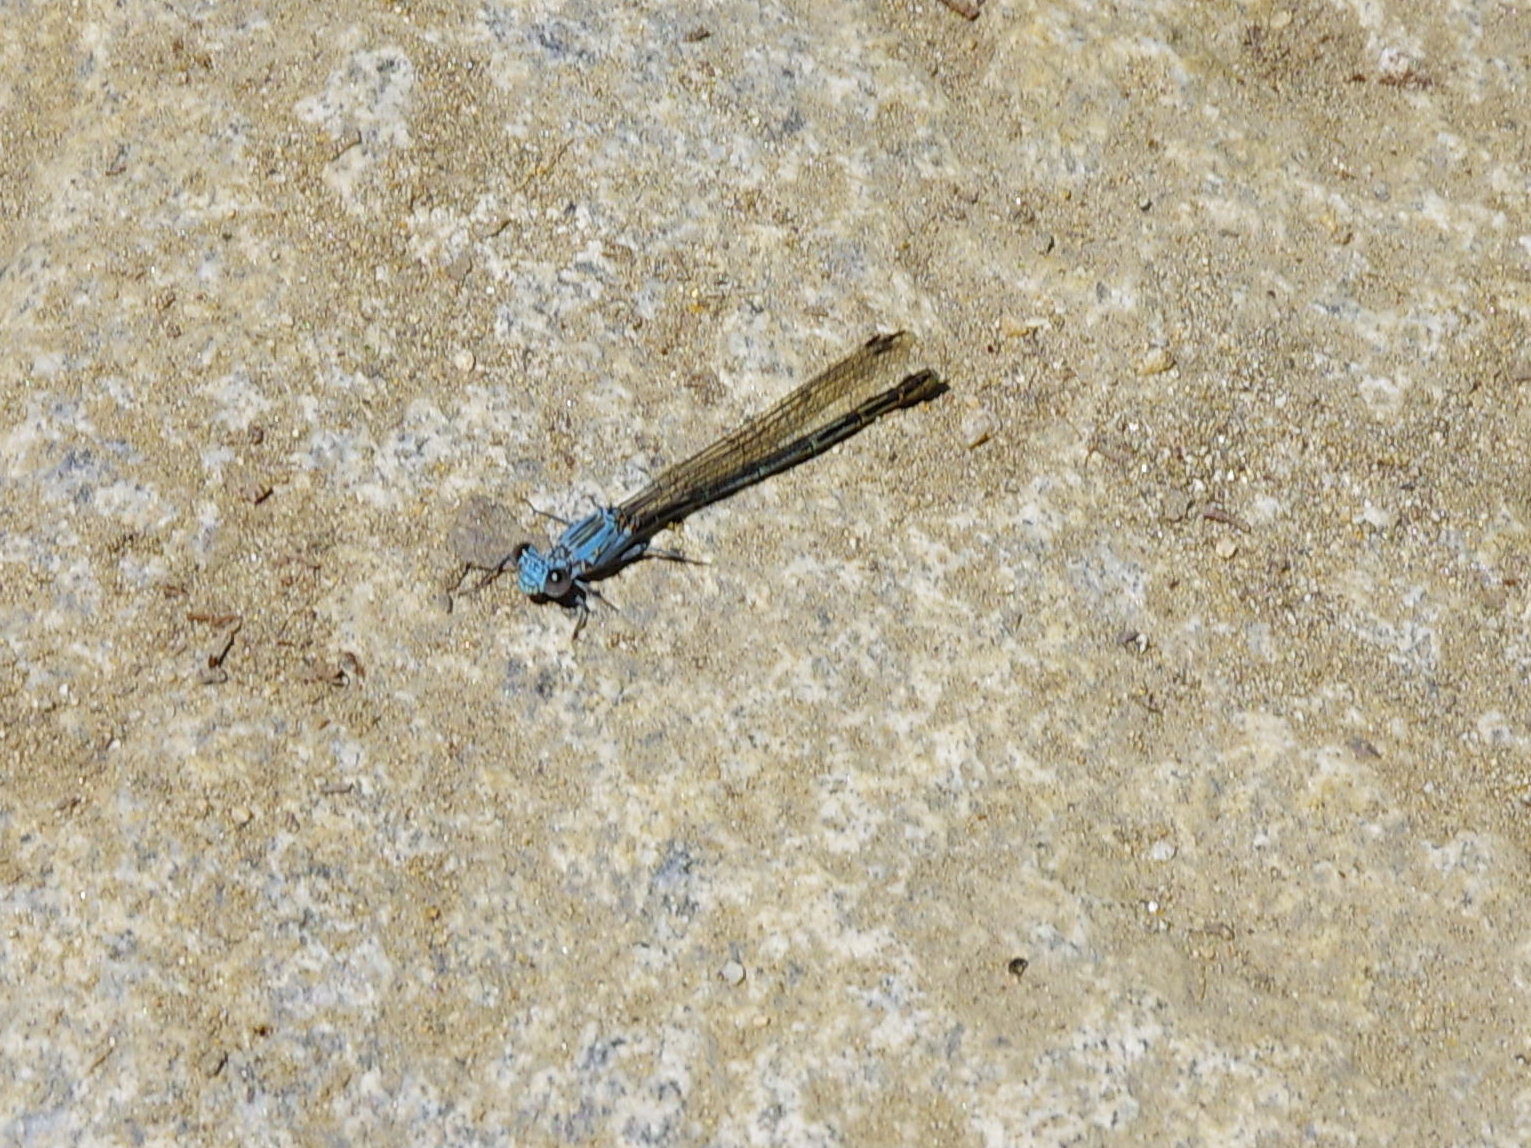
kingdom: Animalia
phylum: Arthropoda
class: Insecta
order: Odonata
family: Coenagrionidae
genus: Argia
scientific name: Argia lugens
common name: Sooty dancer
